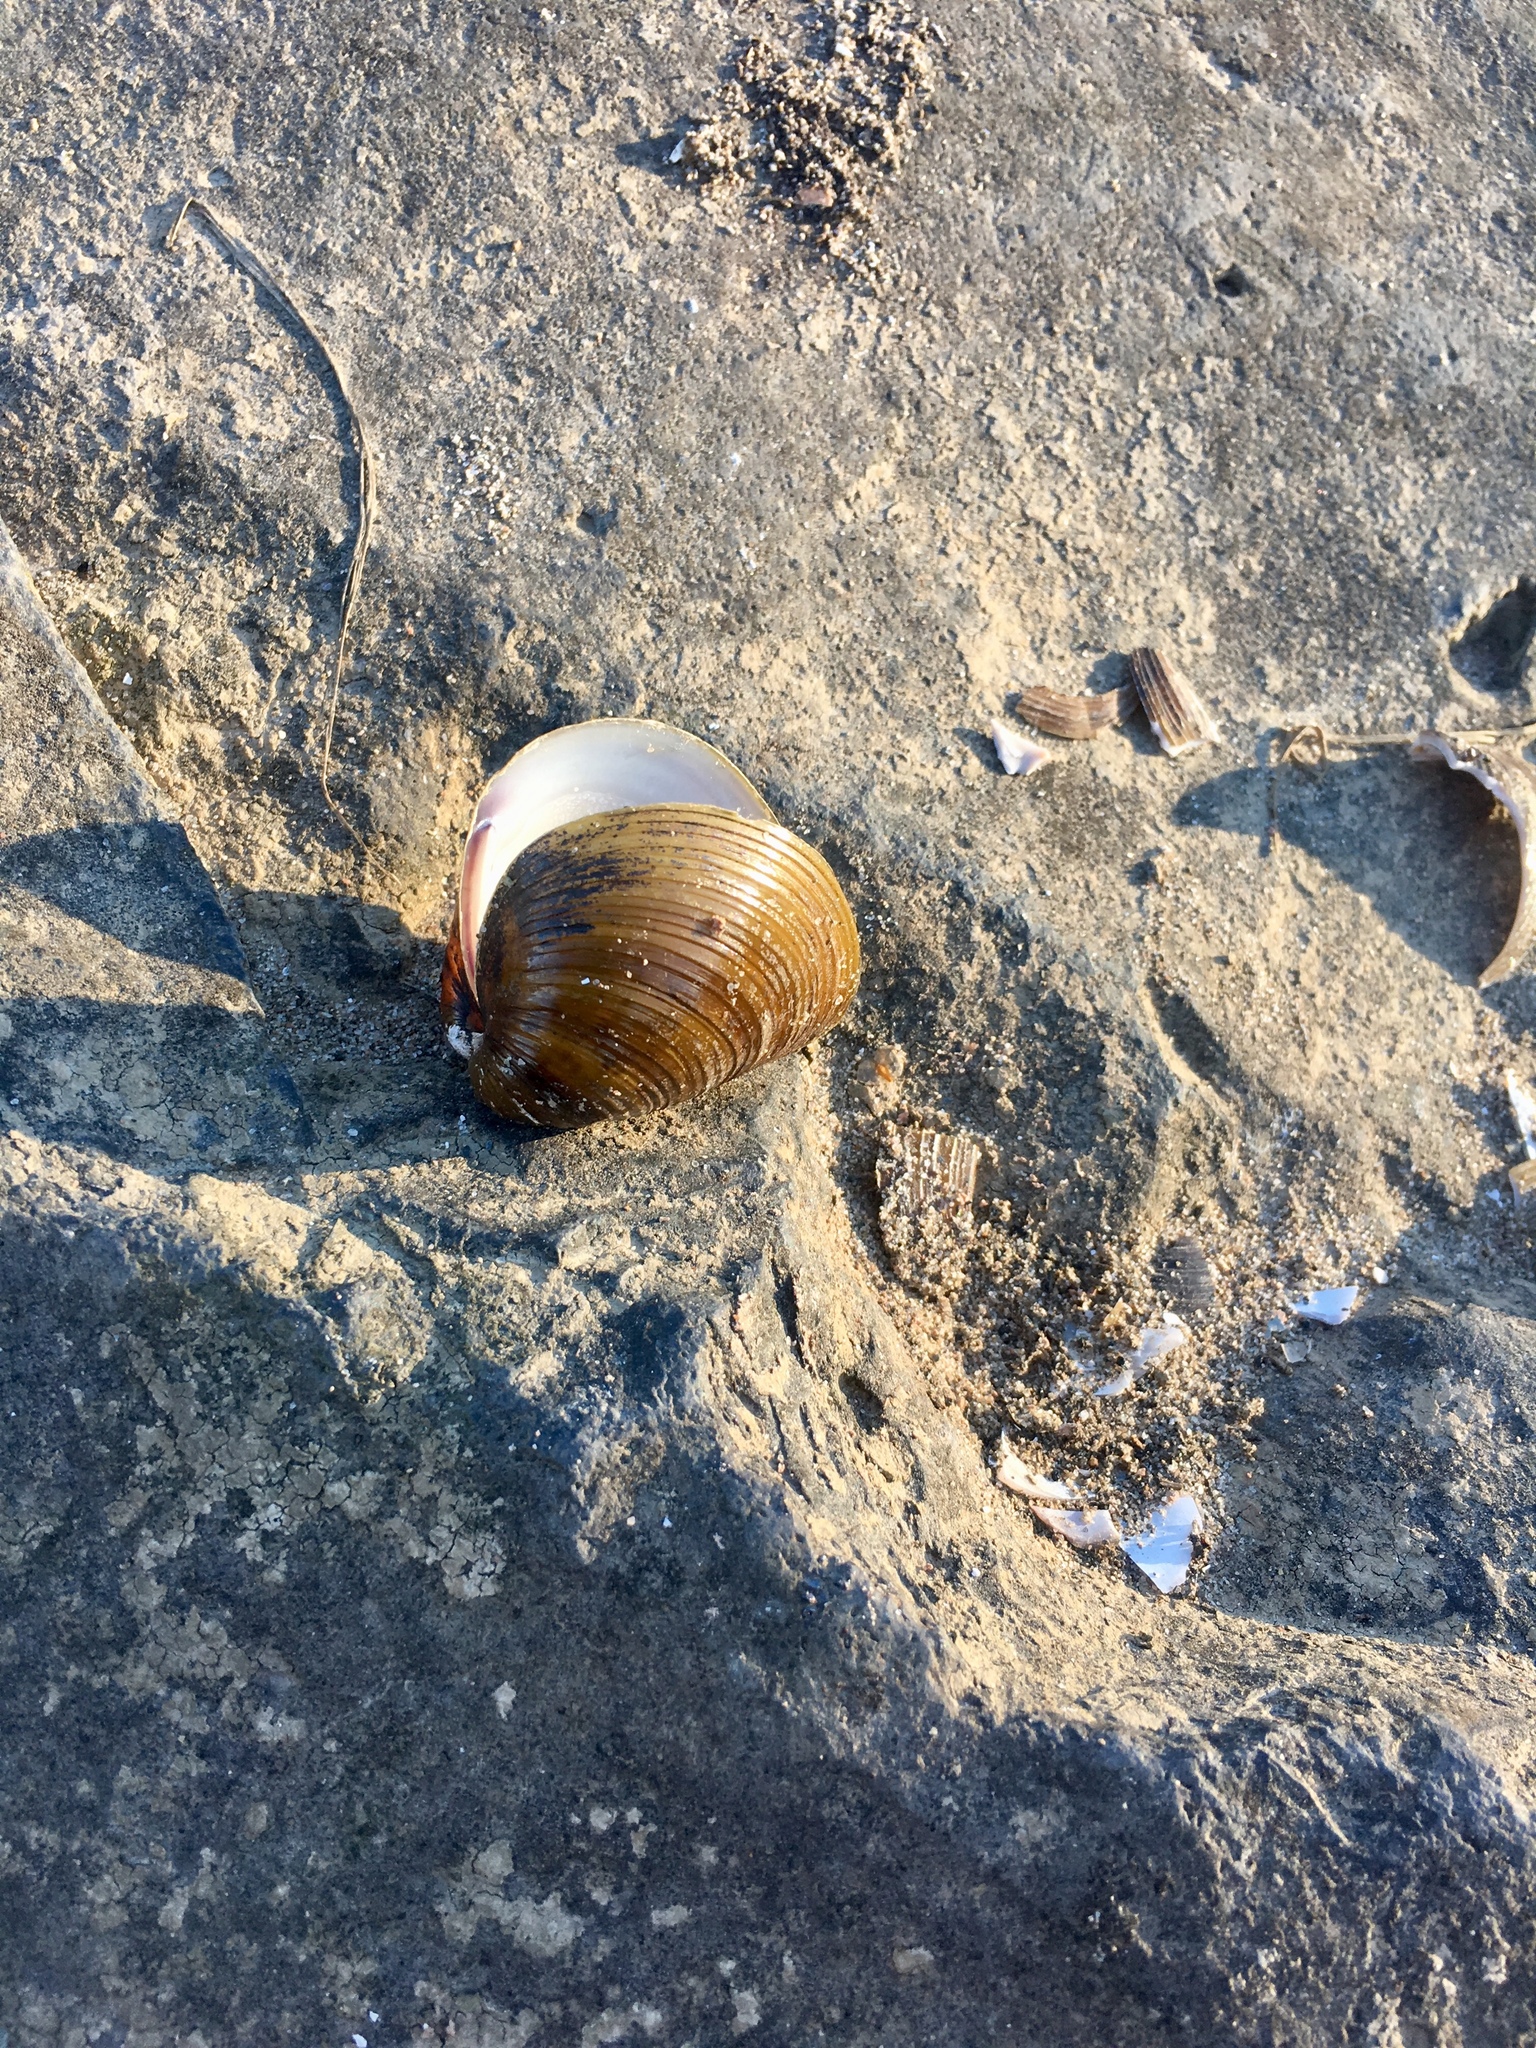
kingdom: Animalia
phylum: Mollusca
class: Bivalvia
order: Venerida
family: Cyrenidae
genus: Corbicula
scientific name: Corbicula fluminea
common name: Asian clam
